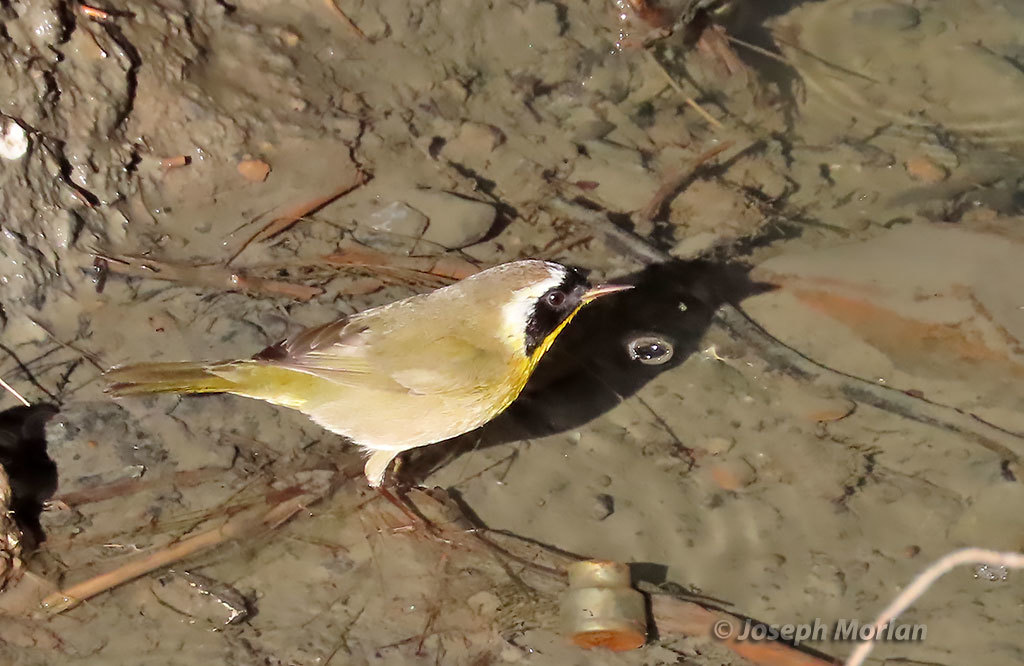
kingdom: Animalia
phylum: Chordata
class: Aves
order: Passeriformes
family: Parulidae
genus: Geothlypis
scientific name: Geothlypis trichas
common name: Common yellowthroat
